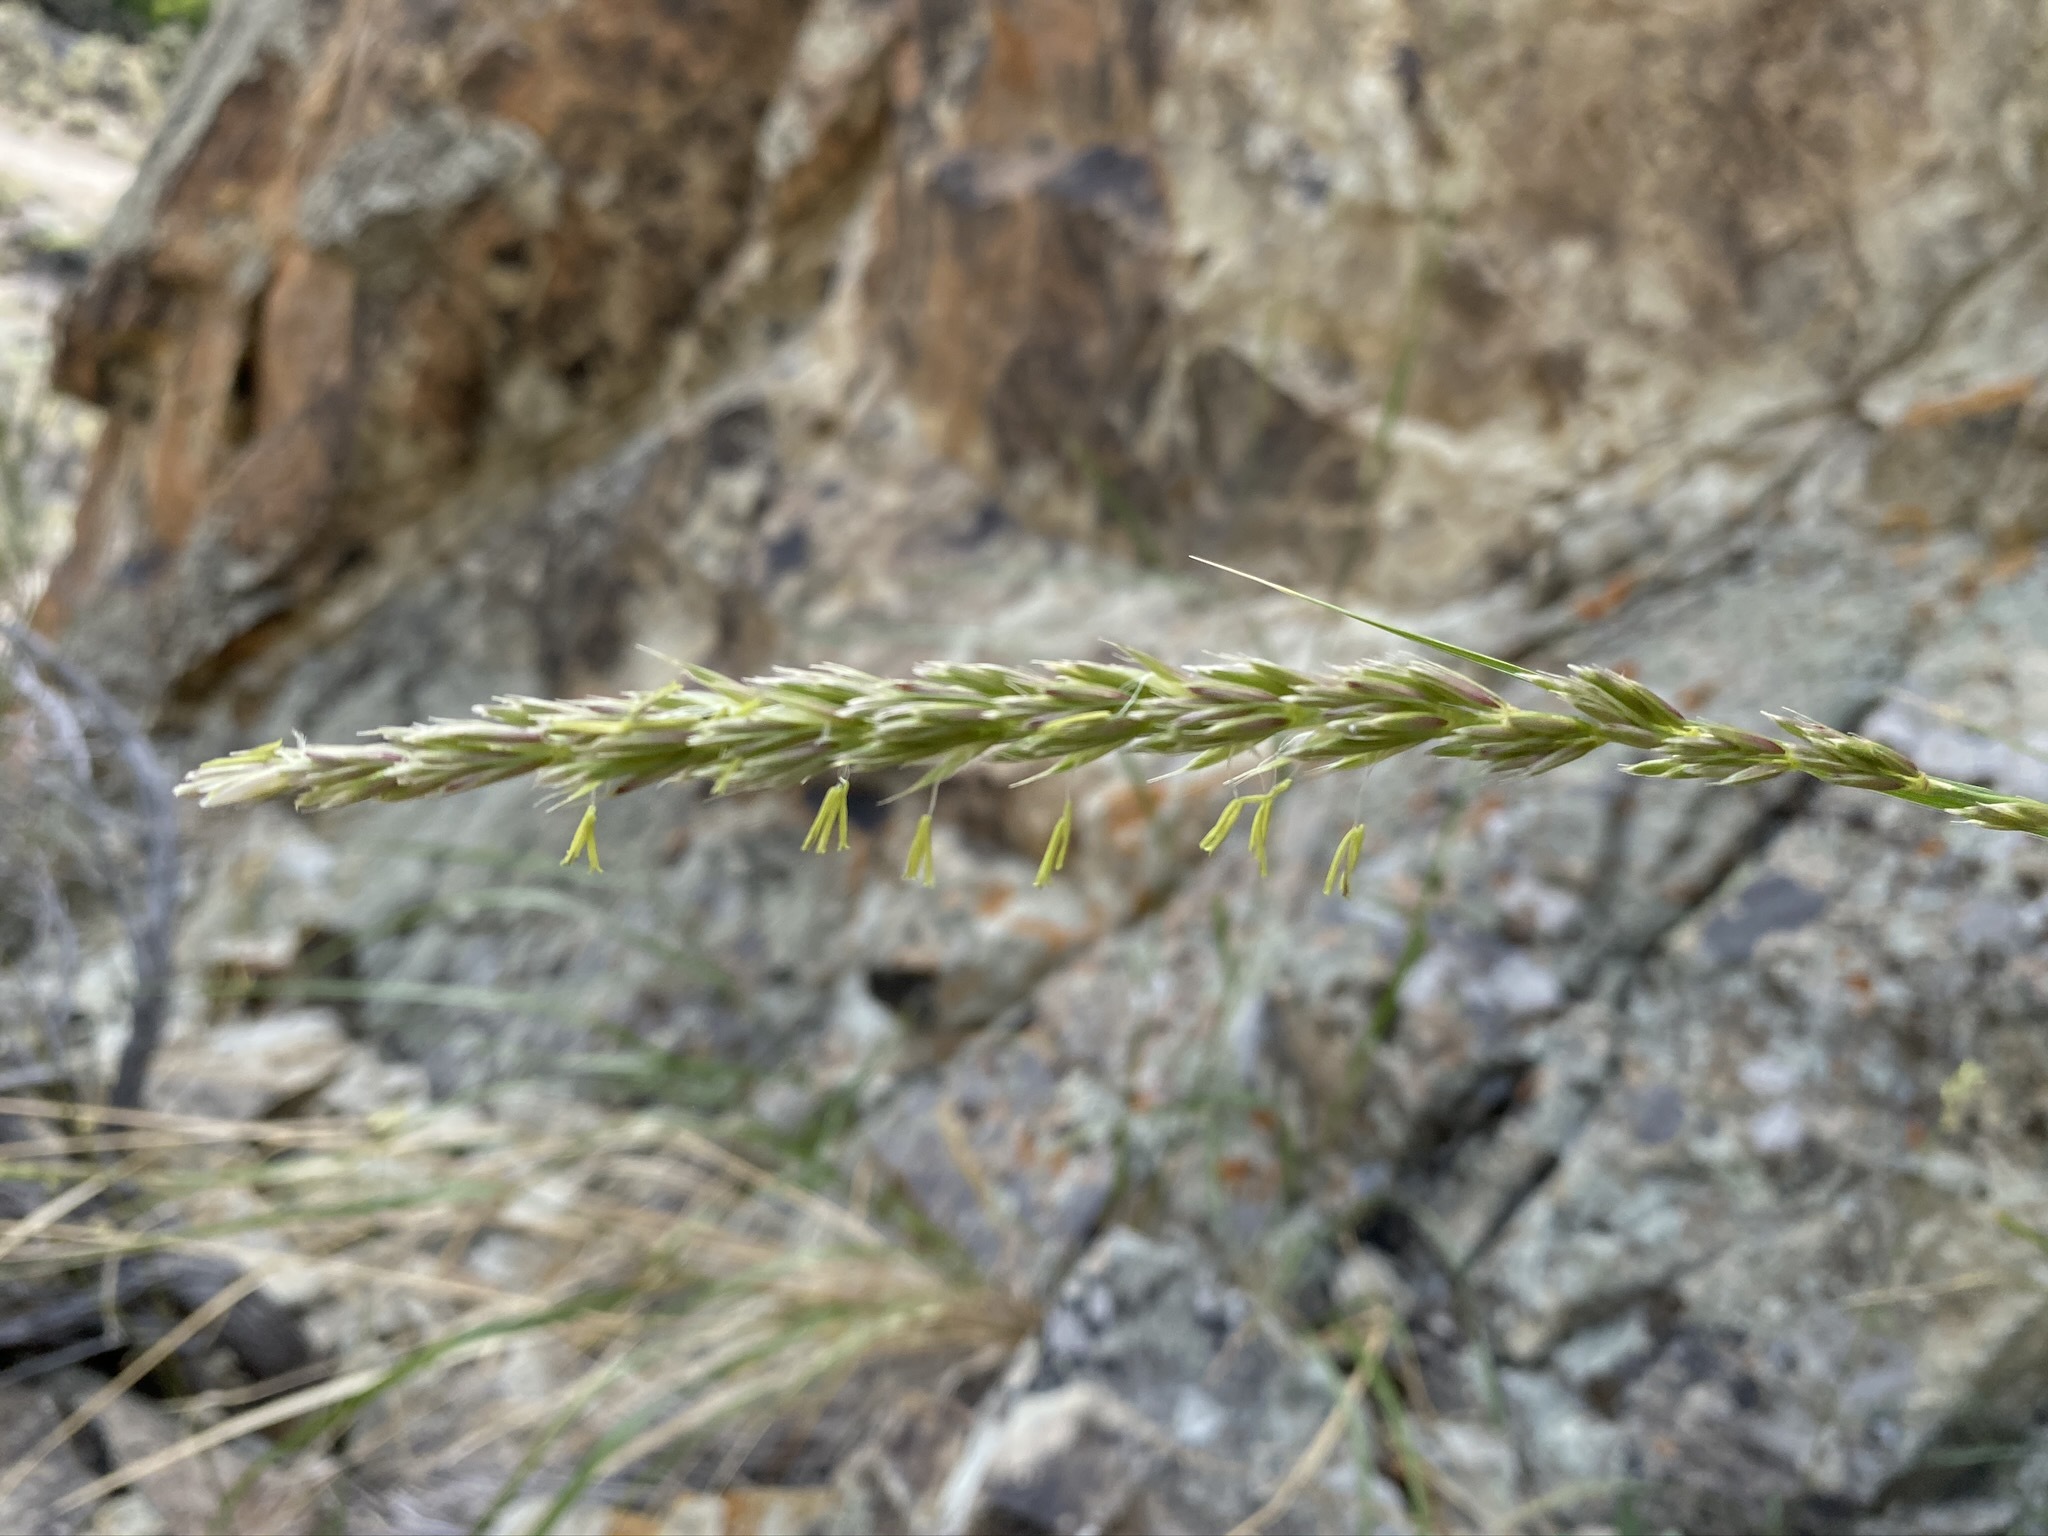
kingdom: Plantae
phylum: Tracheophyta
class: Liliopsida
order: Poales
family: Poaceae
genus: Leymus
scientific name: Leymus cinereus
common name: Basin wild rye
